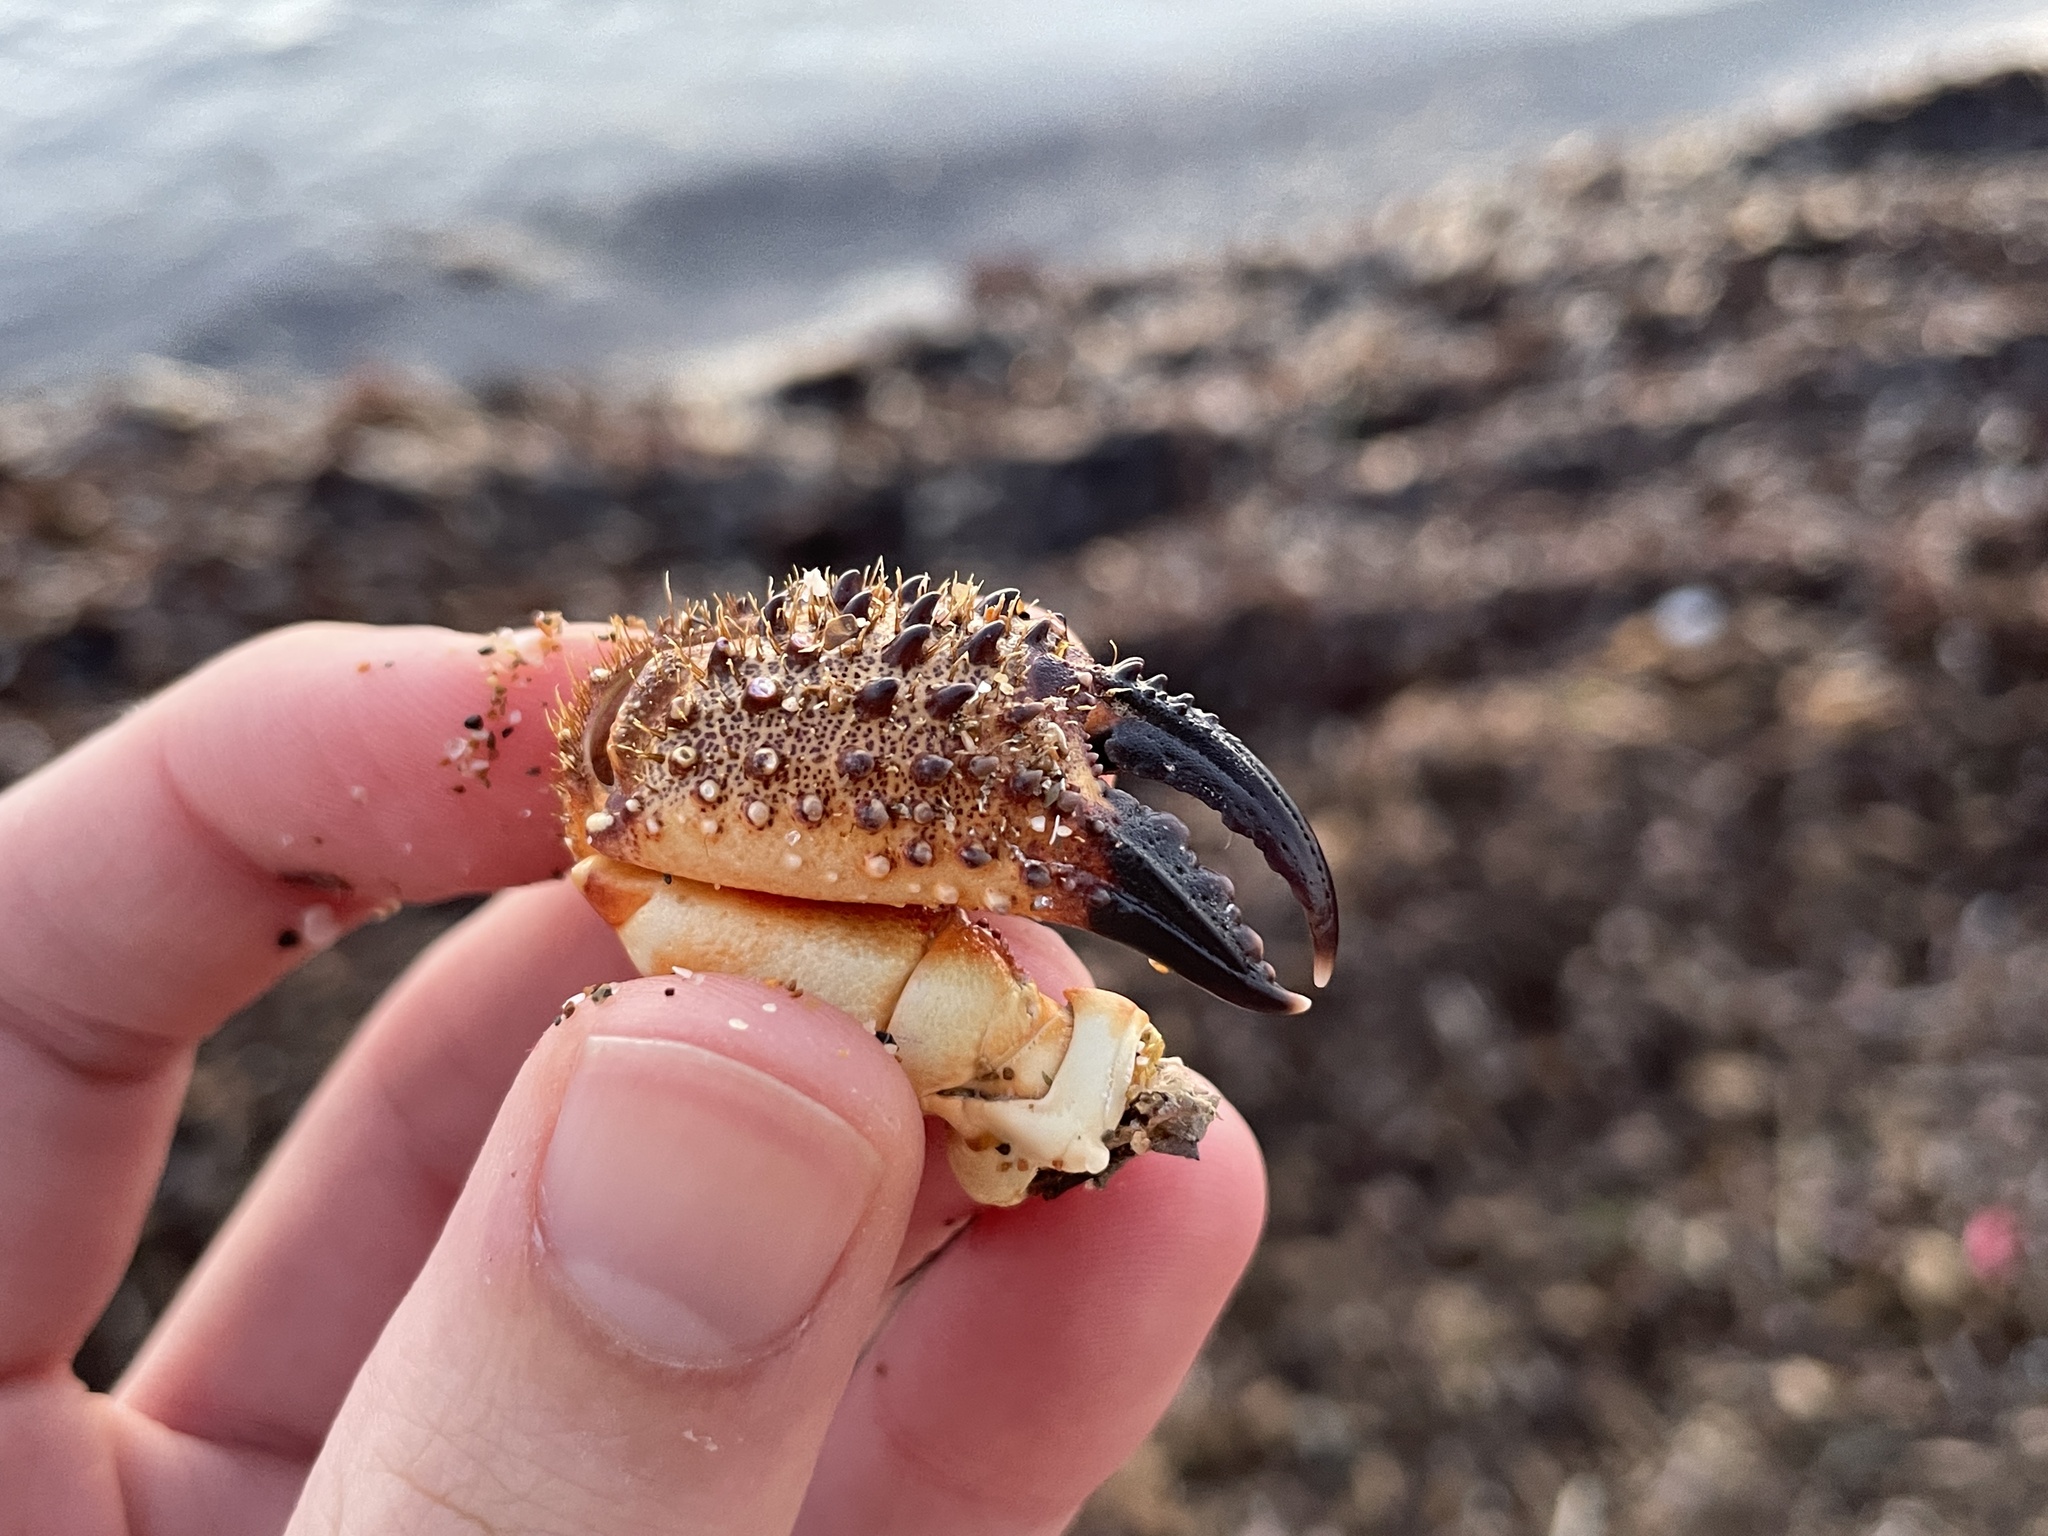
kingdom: Animalia
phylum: Arthropoda
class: Malacostraca
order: Decapoda
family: Eriphiidae
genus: Eriphia
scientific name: Eriphia verrucosa
